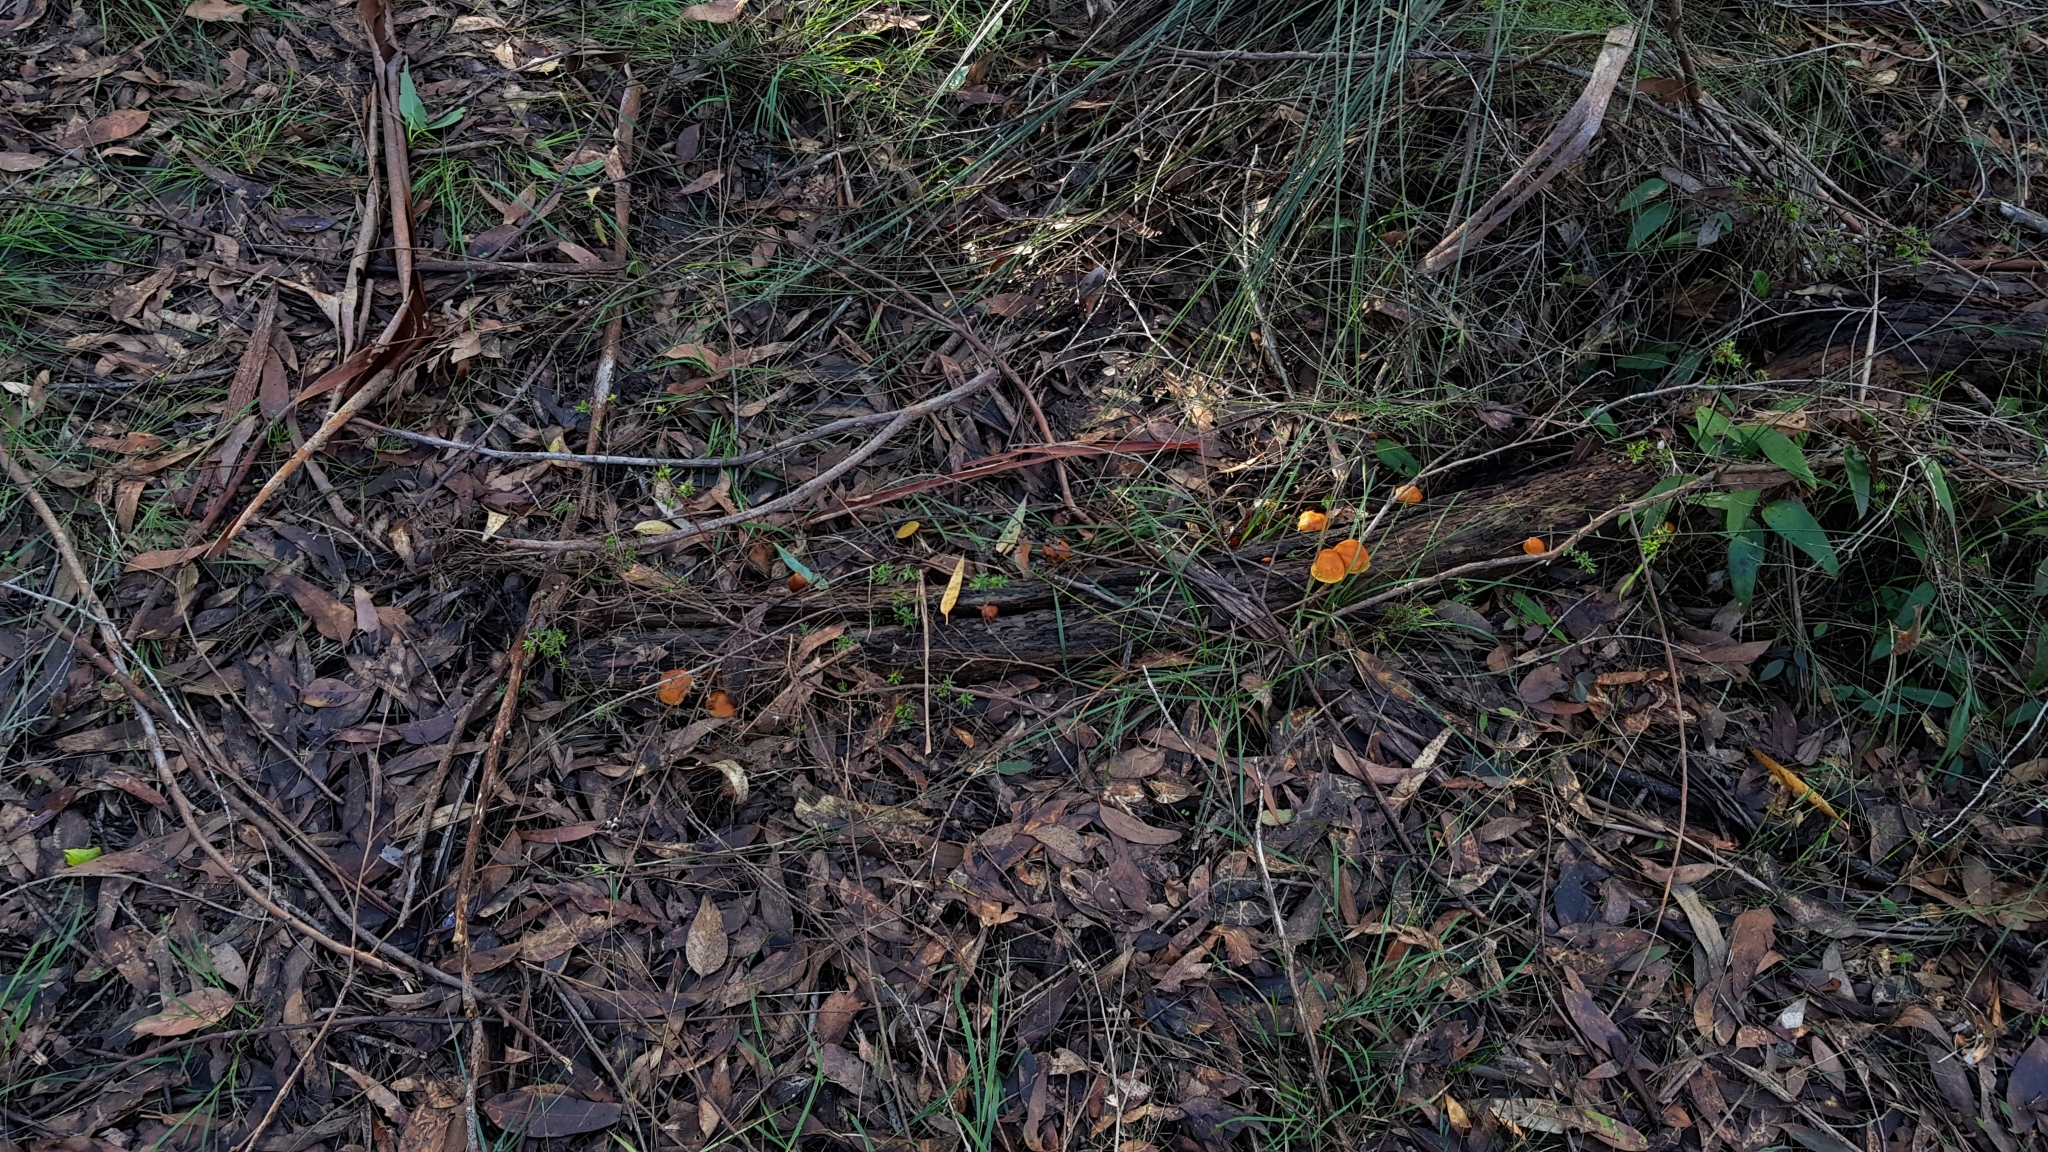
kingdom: Fungi
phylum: Basidiomycota
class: Agaricomycetes
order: Agaricales
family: Hymenogastraceae
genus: Gymnopilus
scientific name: Gymnopilus allantopus
